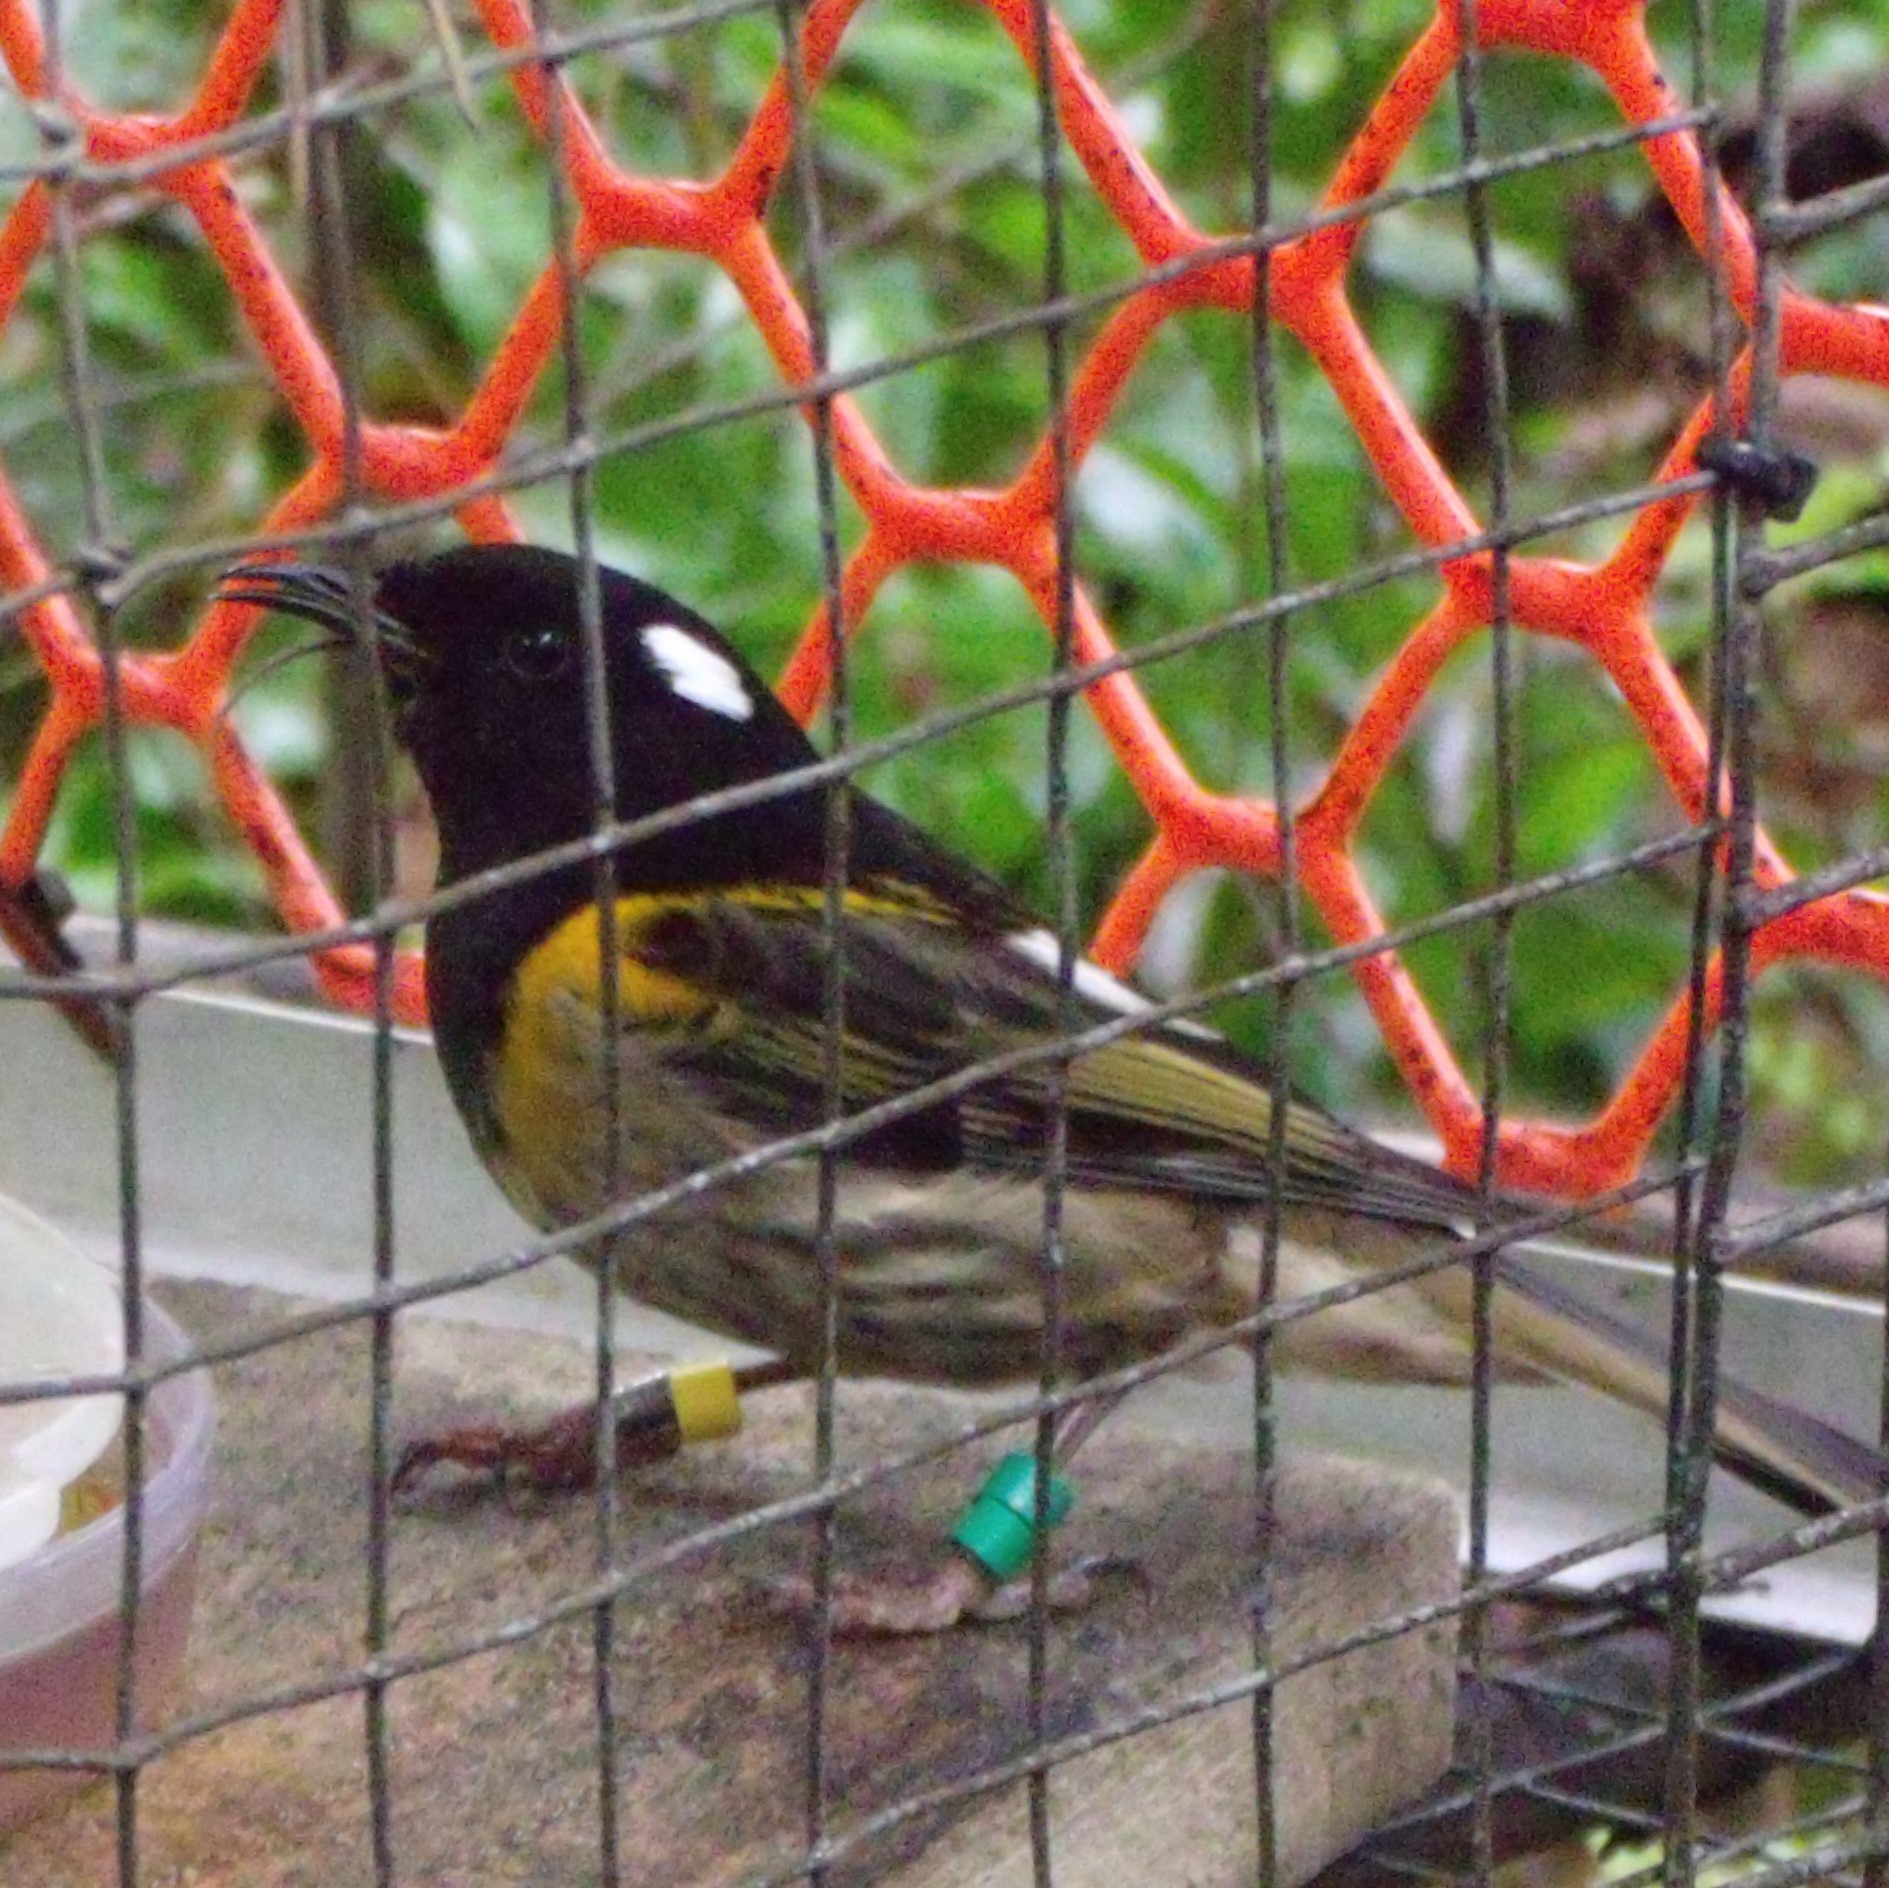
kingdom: Animalia
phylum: Chordata
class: Aves
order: Passeriformes
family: Notiomystidae
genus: Notiomystis
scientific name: Notiomystis cincta
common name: Stitchbird
